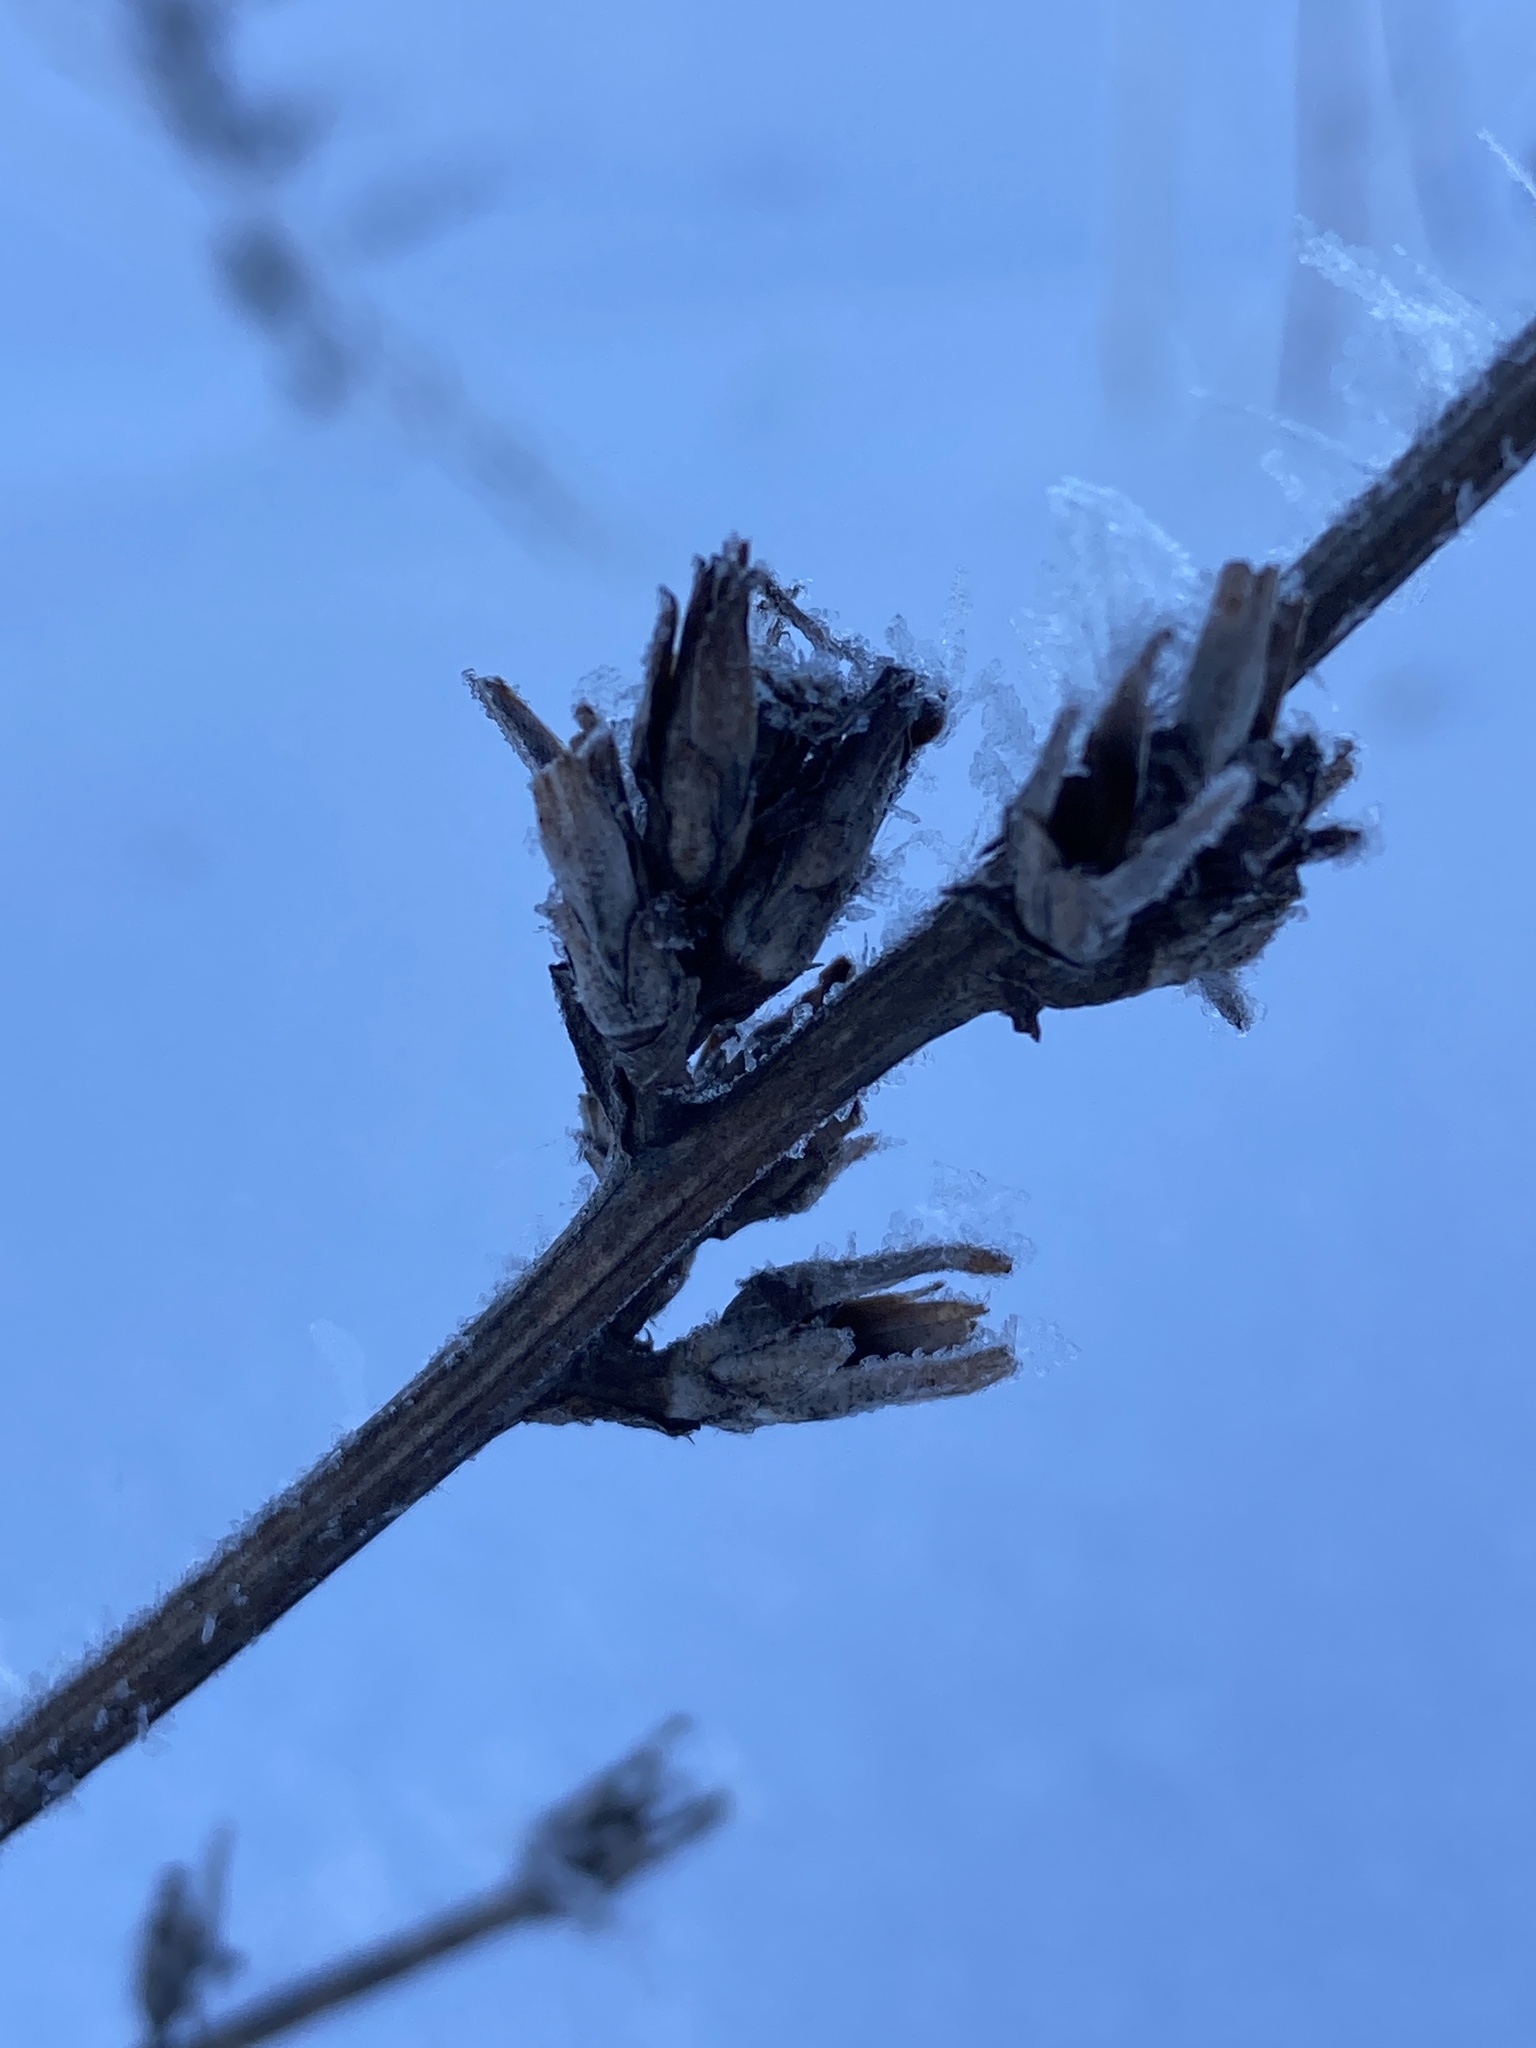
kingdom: Plantae
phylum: Tracheophyta
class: Magnoliopsida
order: Asterales
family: Asteraceae
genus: Cichorium
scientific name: Cichorium intybus
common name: Chicory
